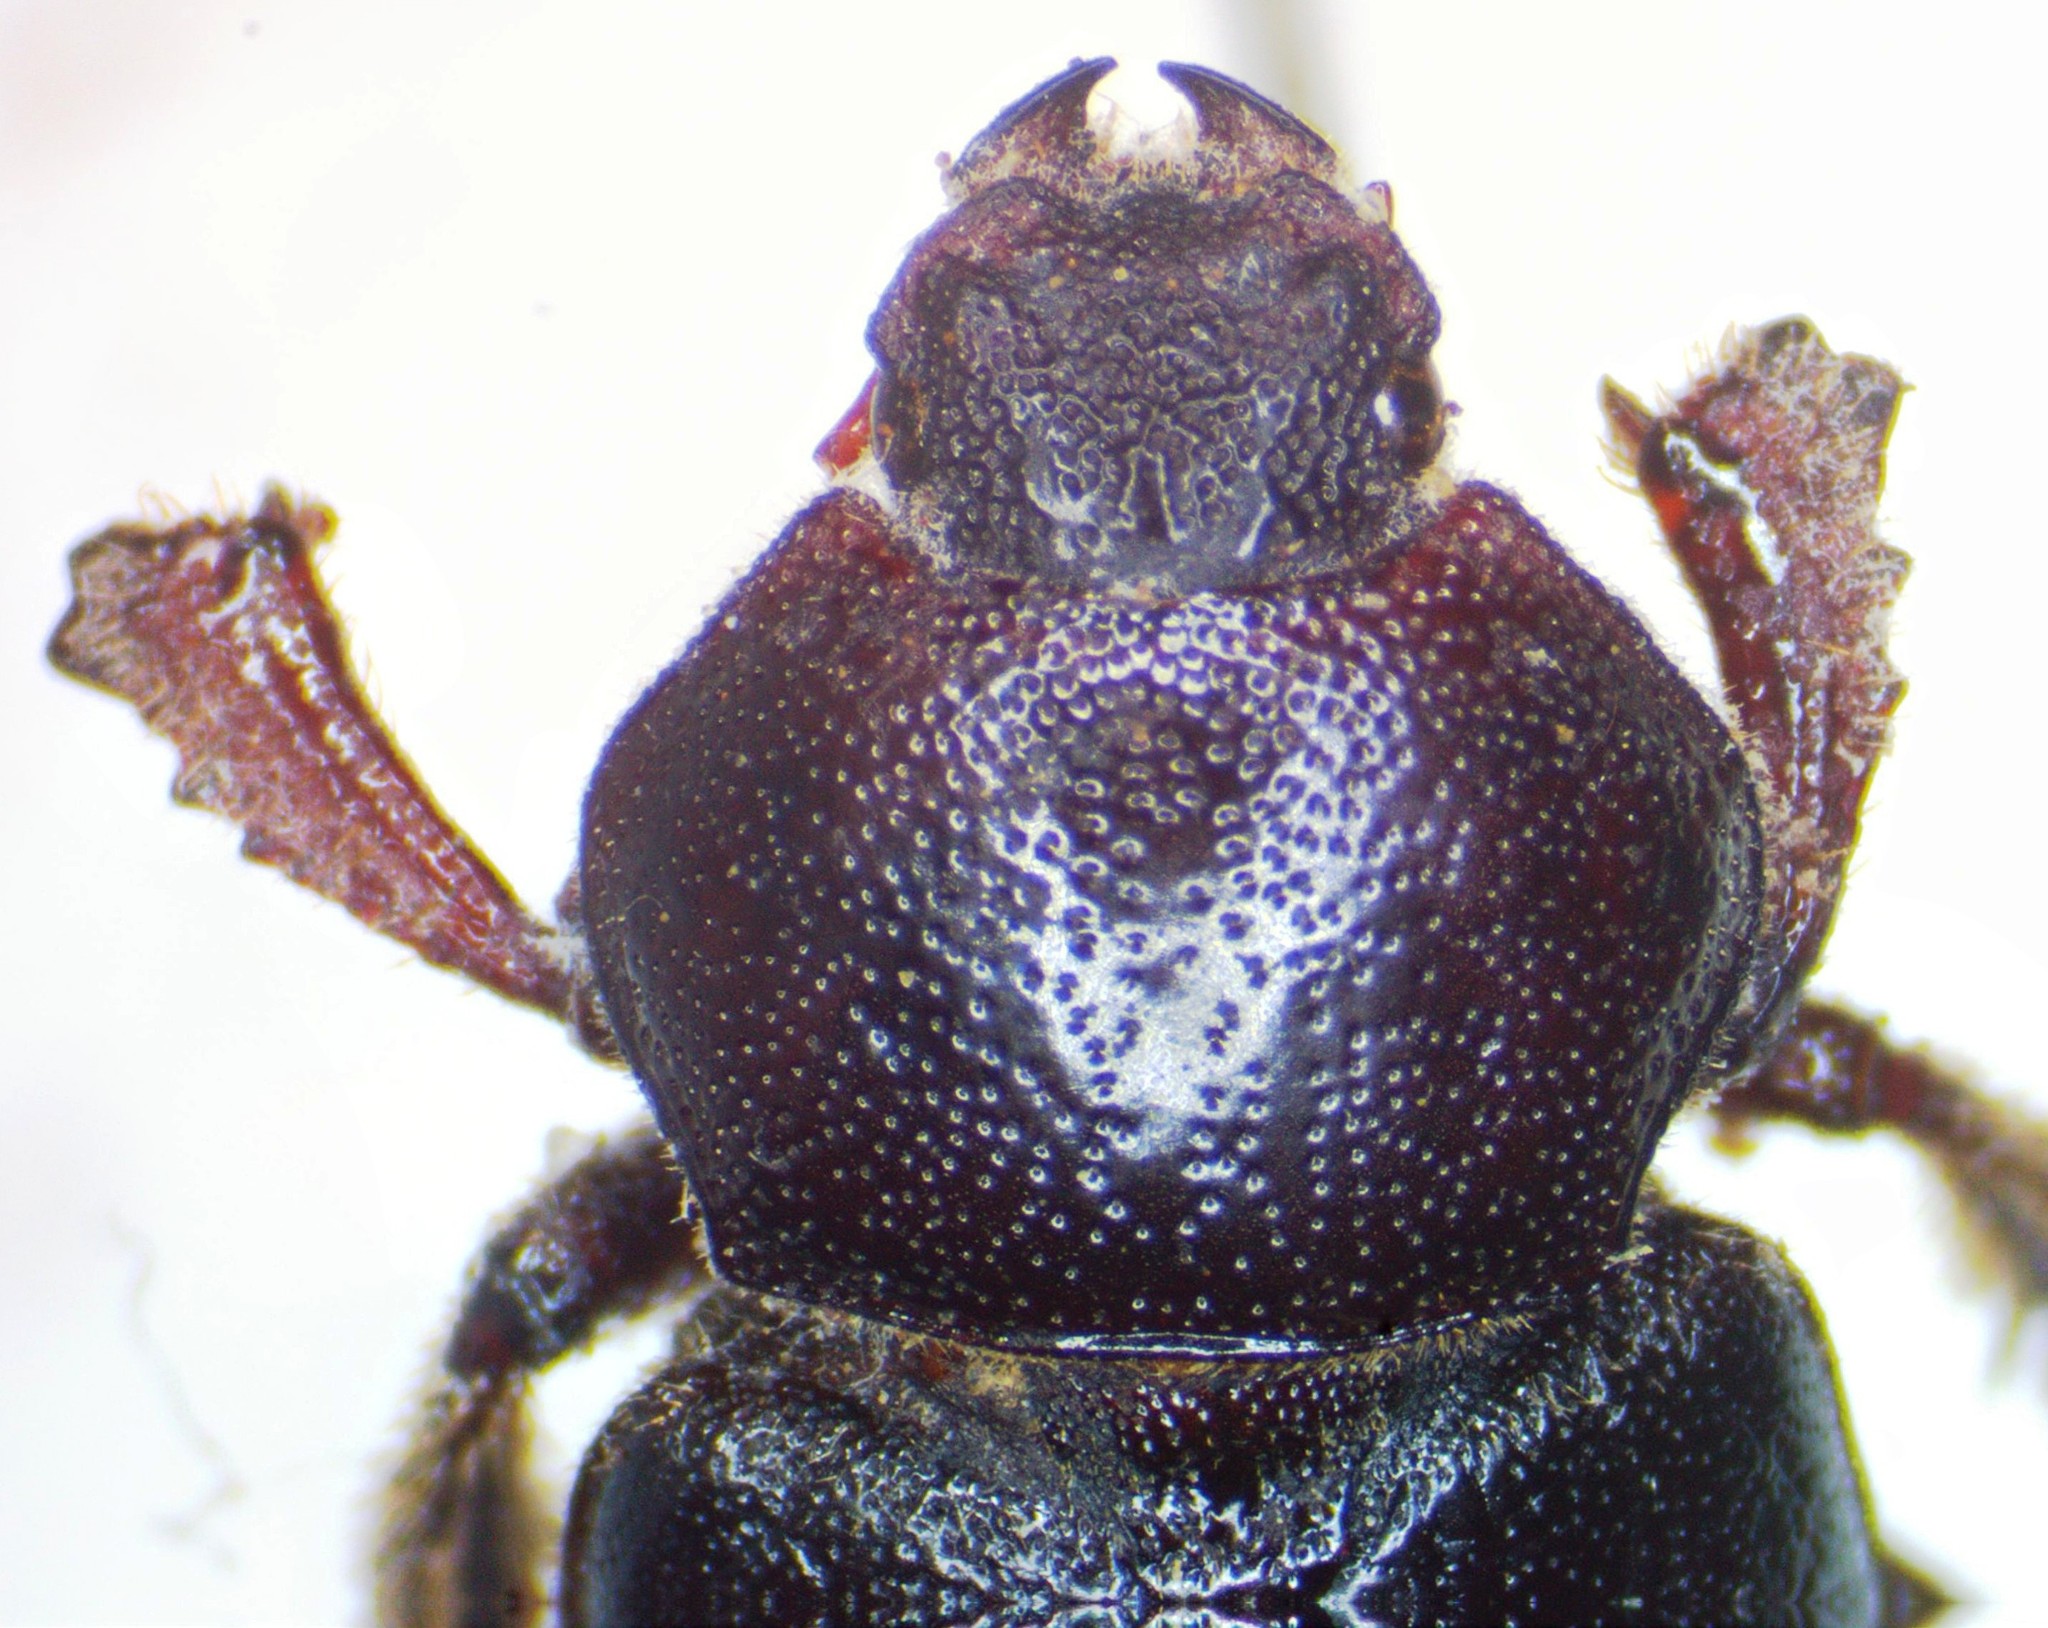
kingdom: Animalia
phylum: Arthropoda
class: Insecta
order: Coleoptera
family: Lucanidae
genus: Platyceroides
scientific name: Platyceroides keeni
